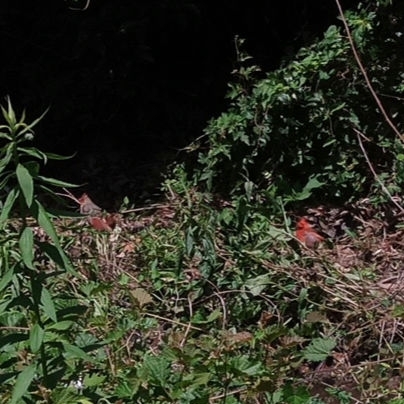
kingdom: Animalia
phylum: Chordata
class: Aves
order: Passeriformes
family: Cardinalidae
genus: Cardinalis
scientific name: Cardinalis cardinalis
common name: Northern cardinal
